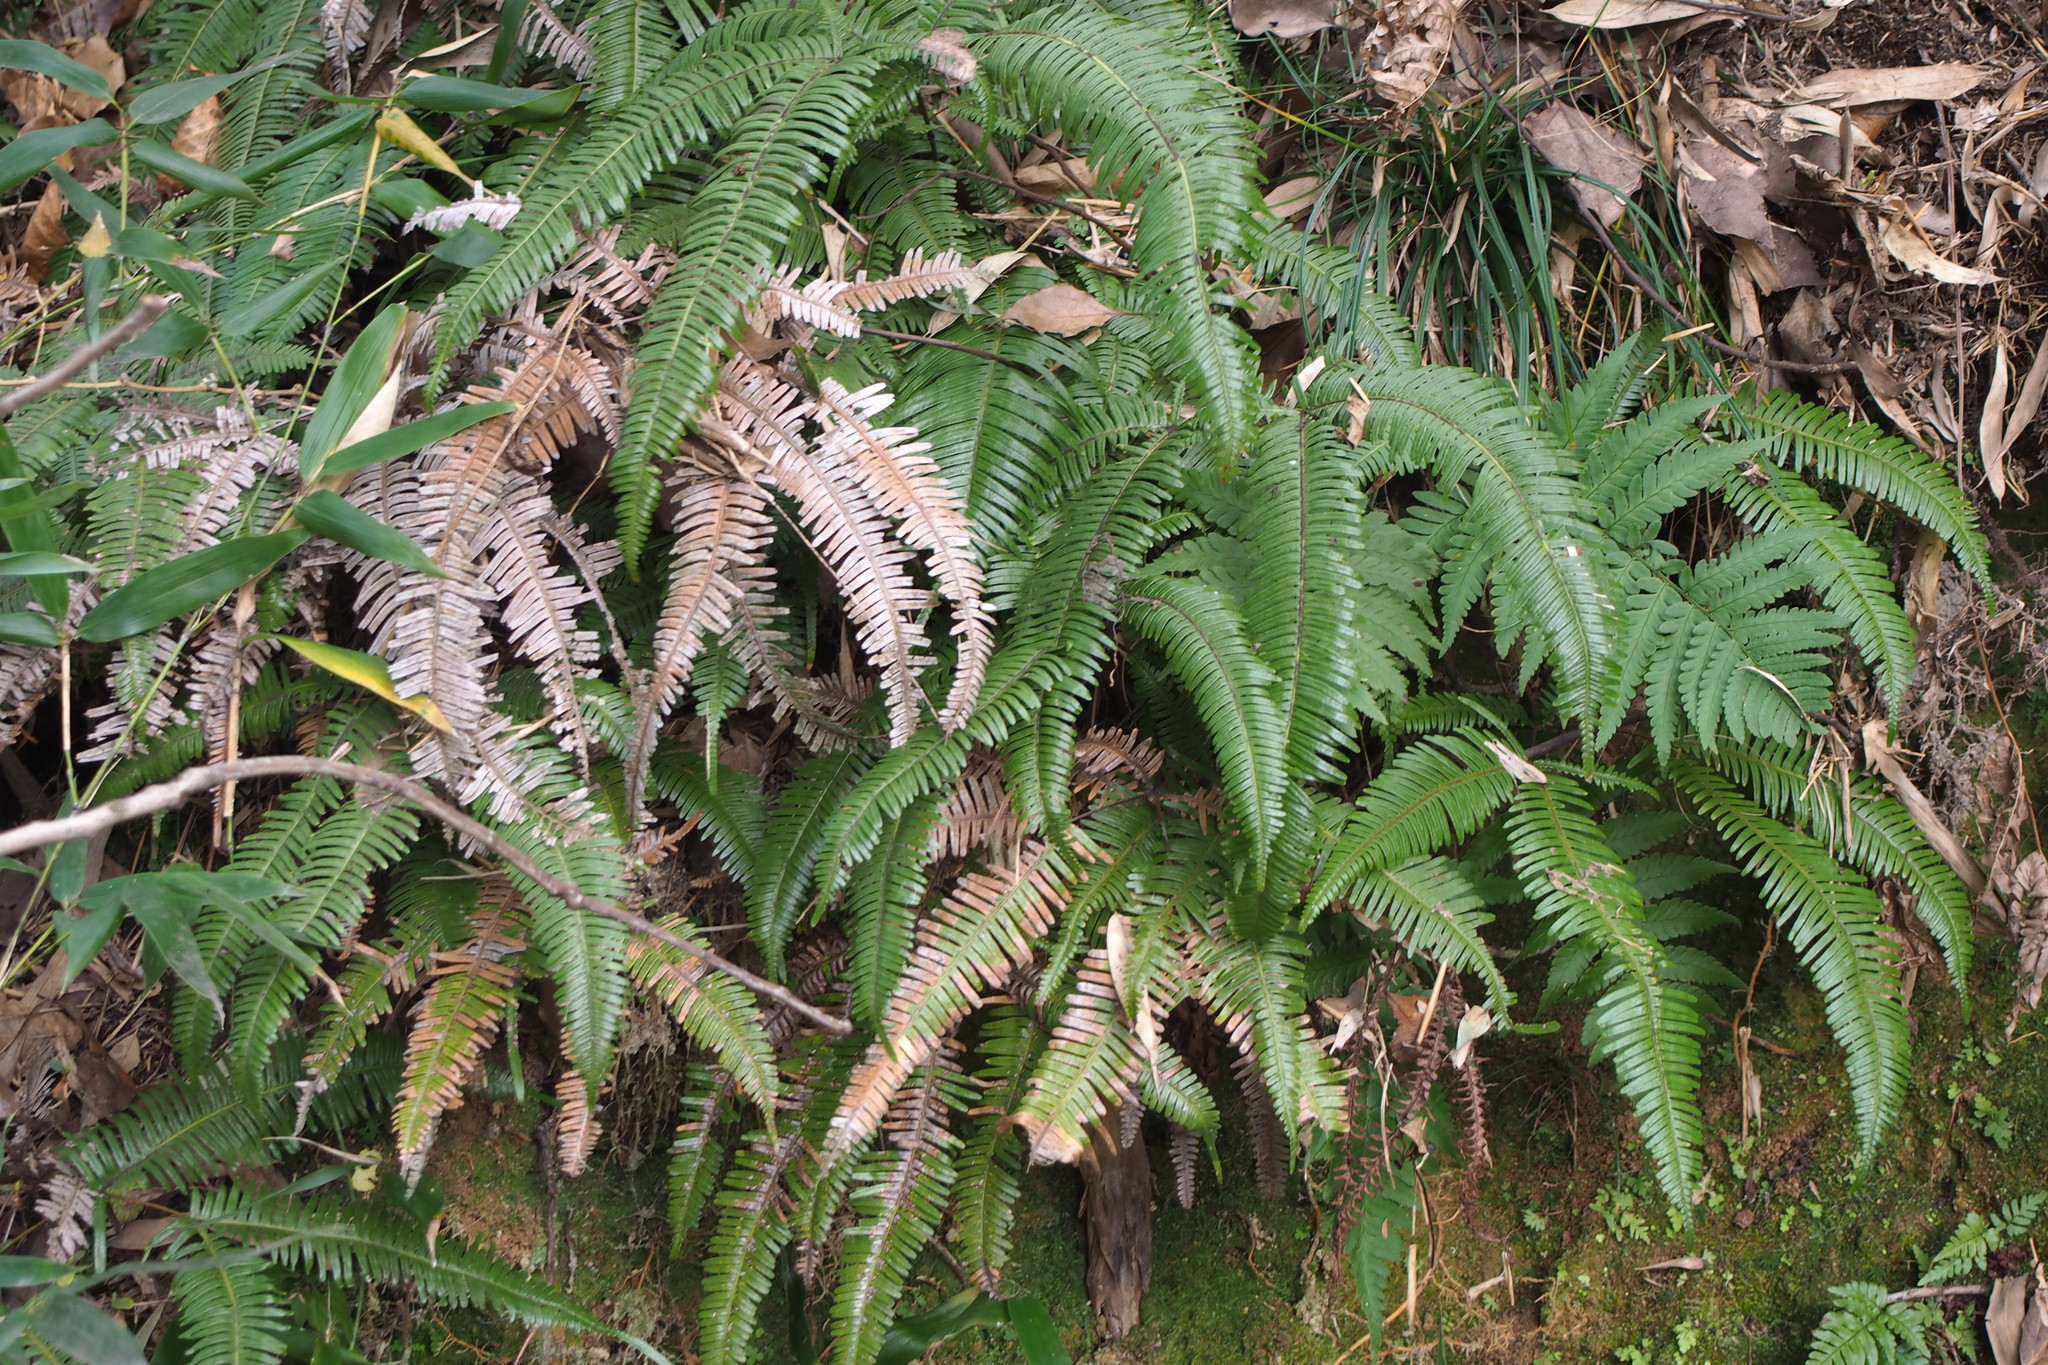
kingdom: Plantae
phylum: Tracheophyta
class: Polypodiopsida
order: Gleicheniales
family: Gleicheniaceae
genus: Dicranopteris
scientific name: Dicranopteris linearis
